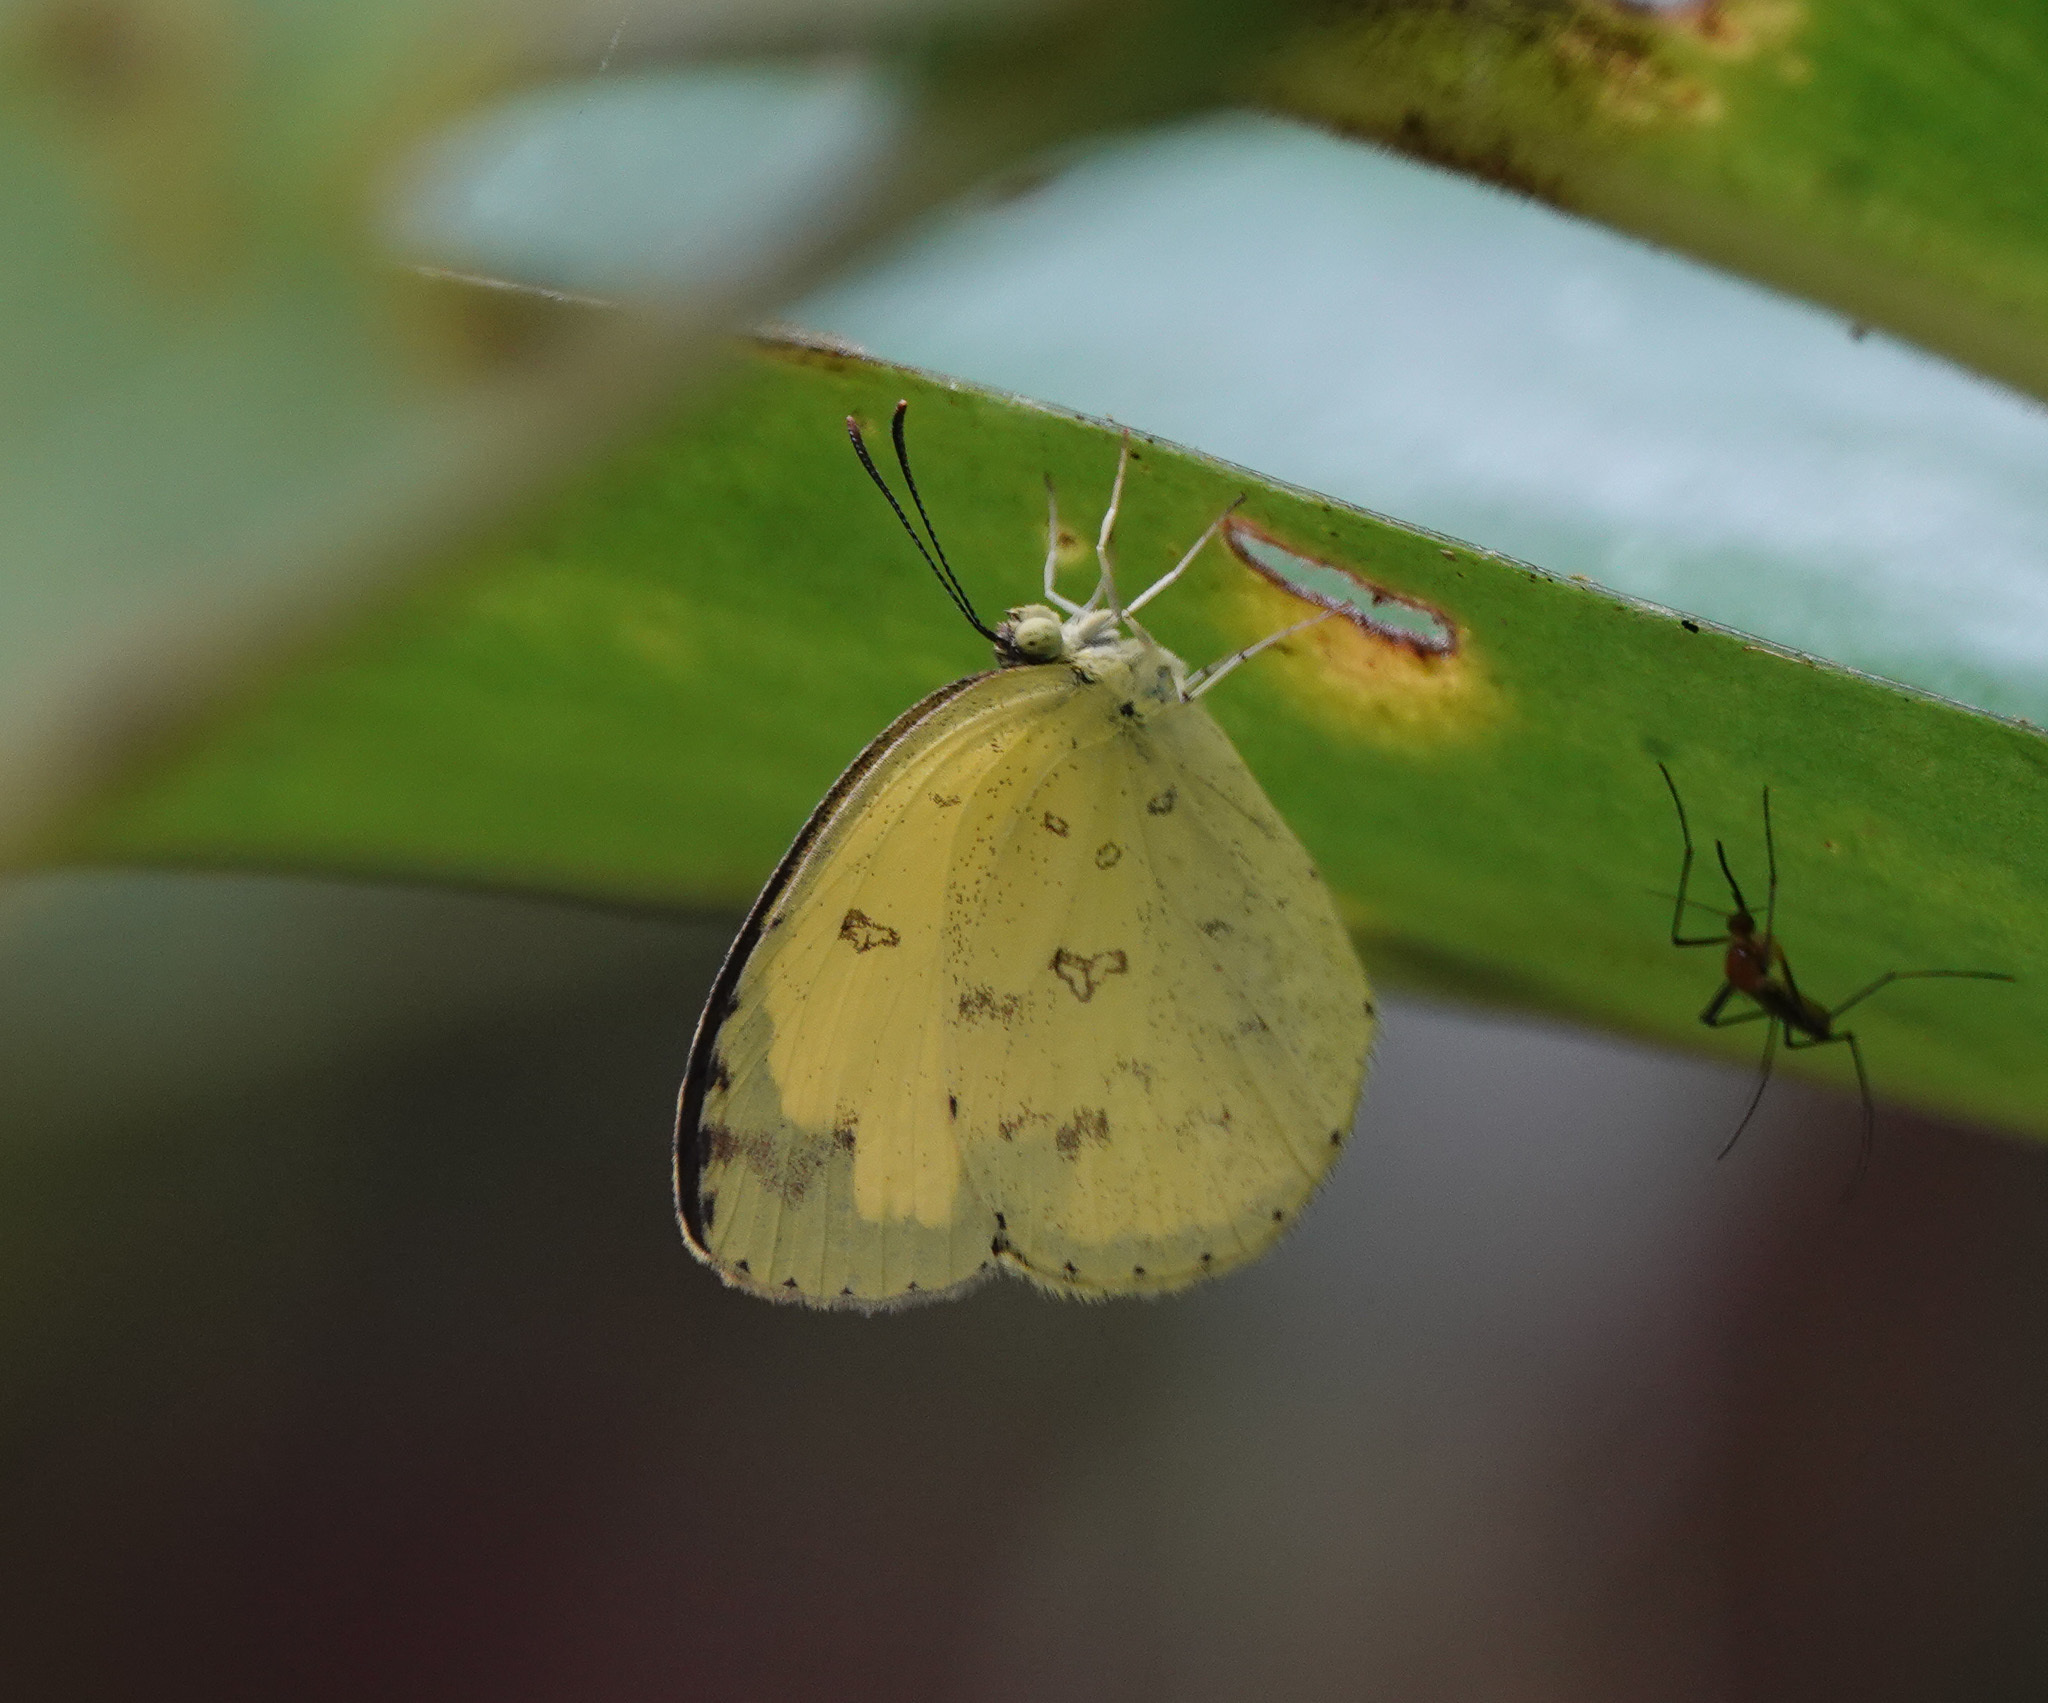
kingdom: Animalia
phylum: Arthropoda
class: Insecta
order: Lepidoptera
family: Pieridae
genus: Eurema
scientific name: Eurema hecabe
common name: Pale grass yellow
